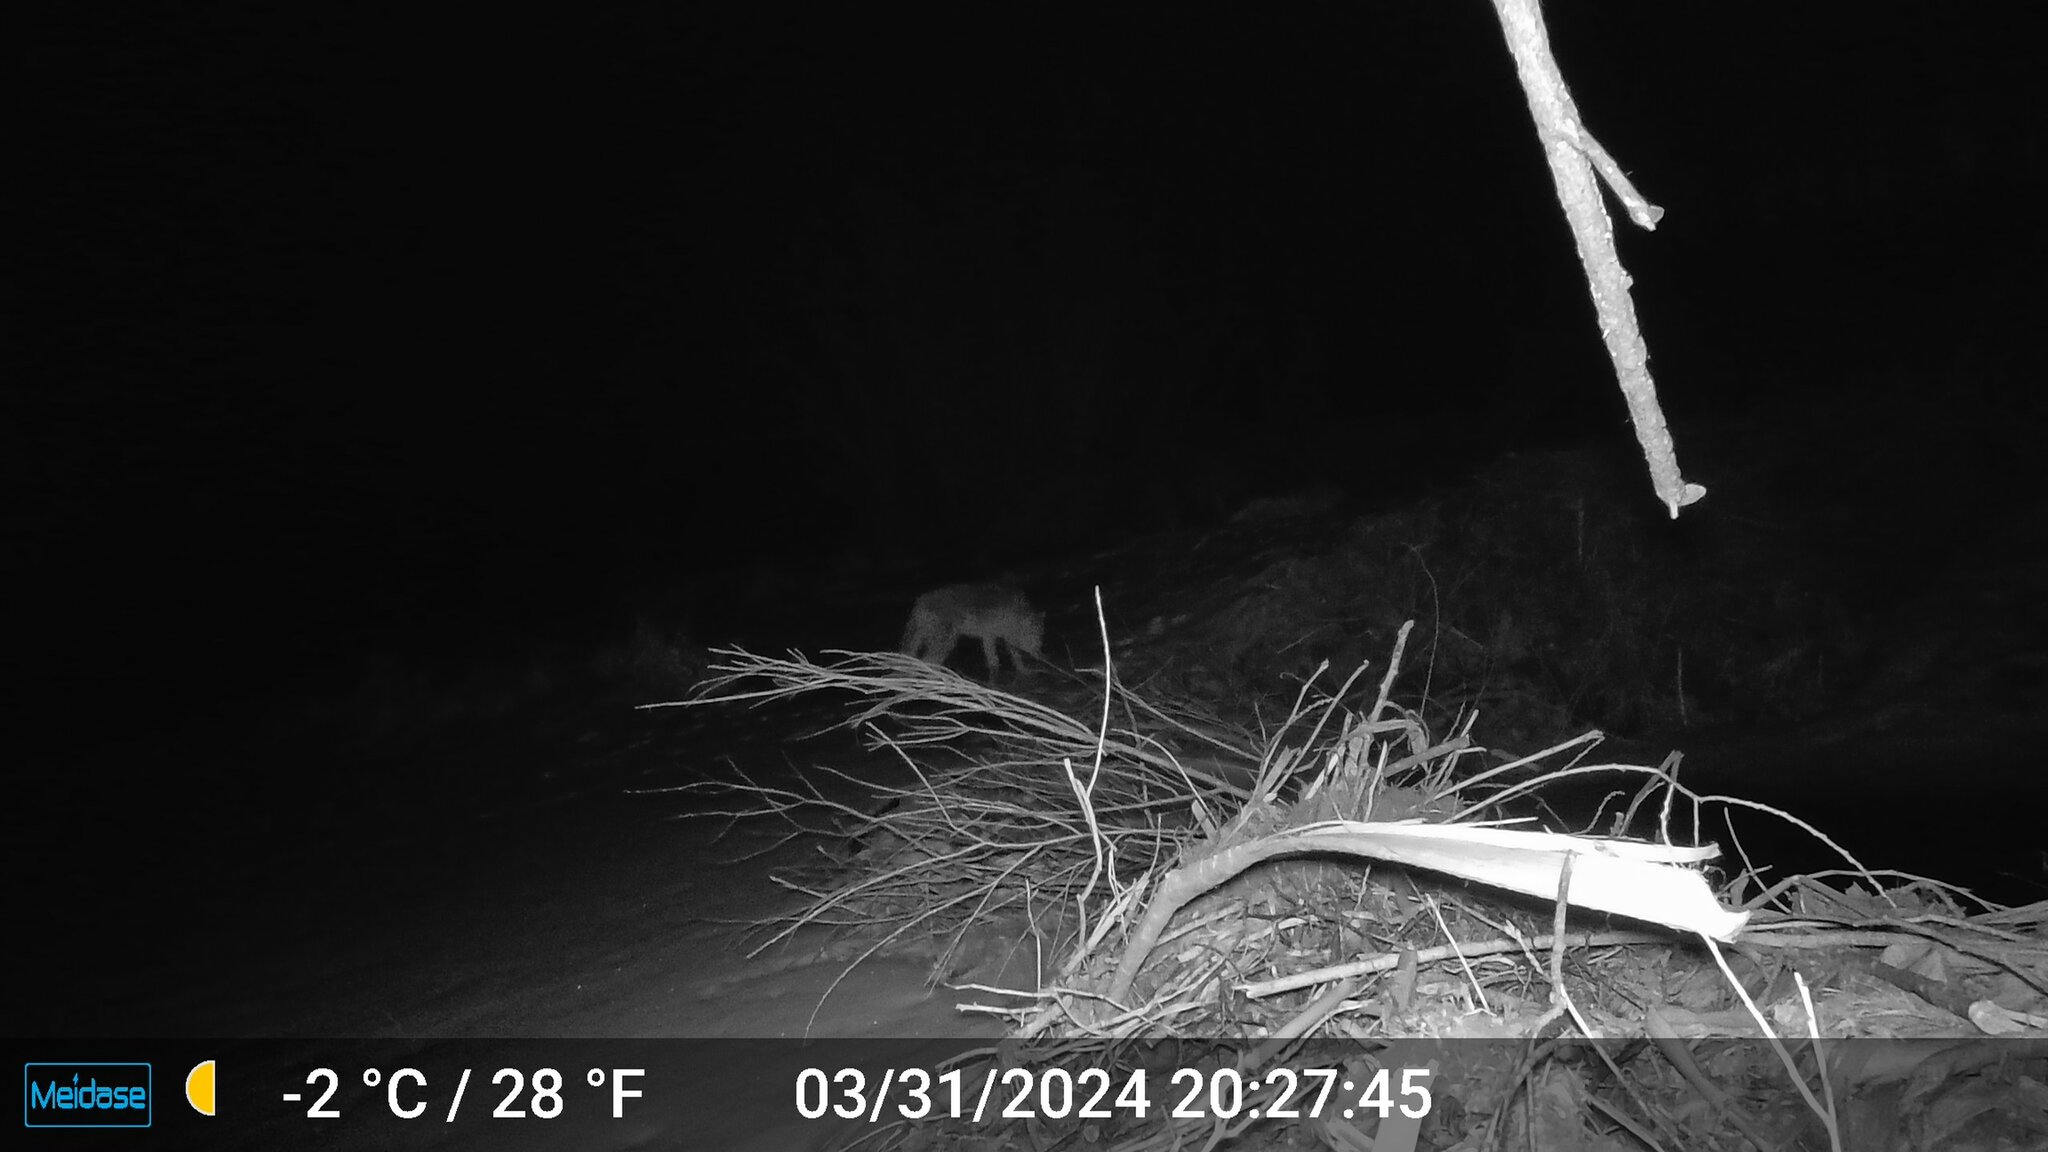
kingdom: Animalia
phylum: Chordata
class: Mammalia
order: Carnivora
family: Canidae
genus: Canis
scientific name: Canis latrans
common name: Coyote
